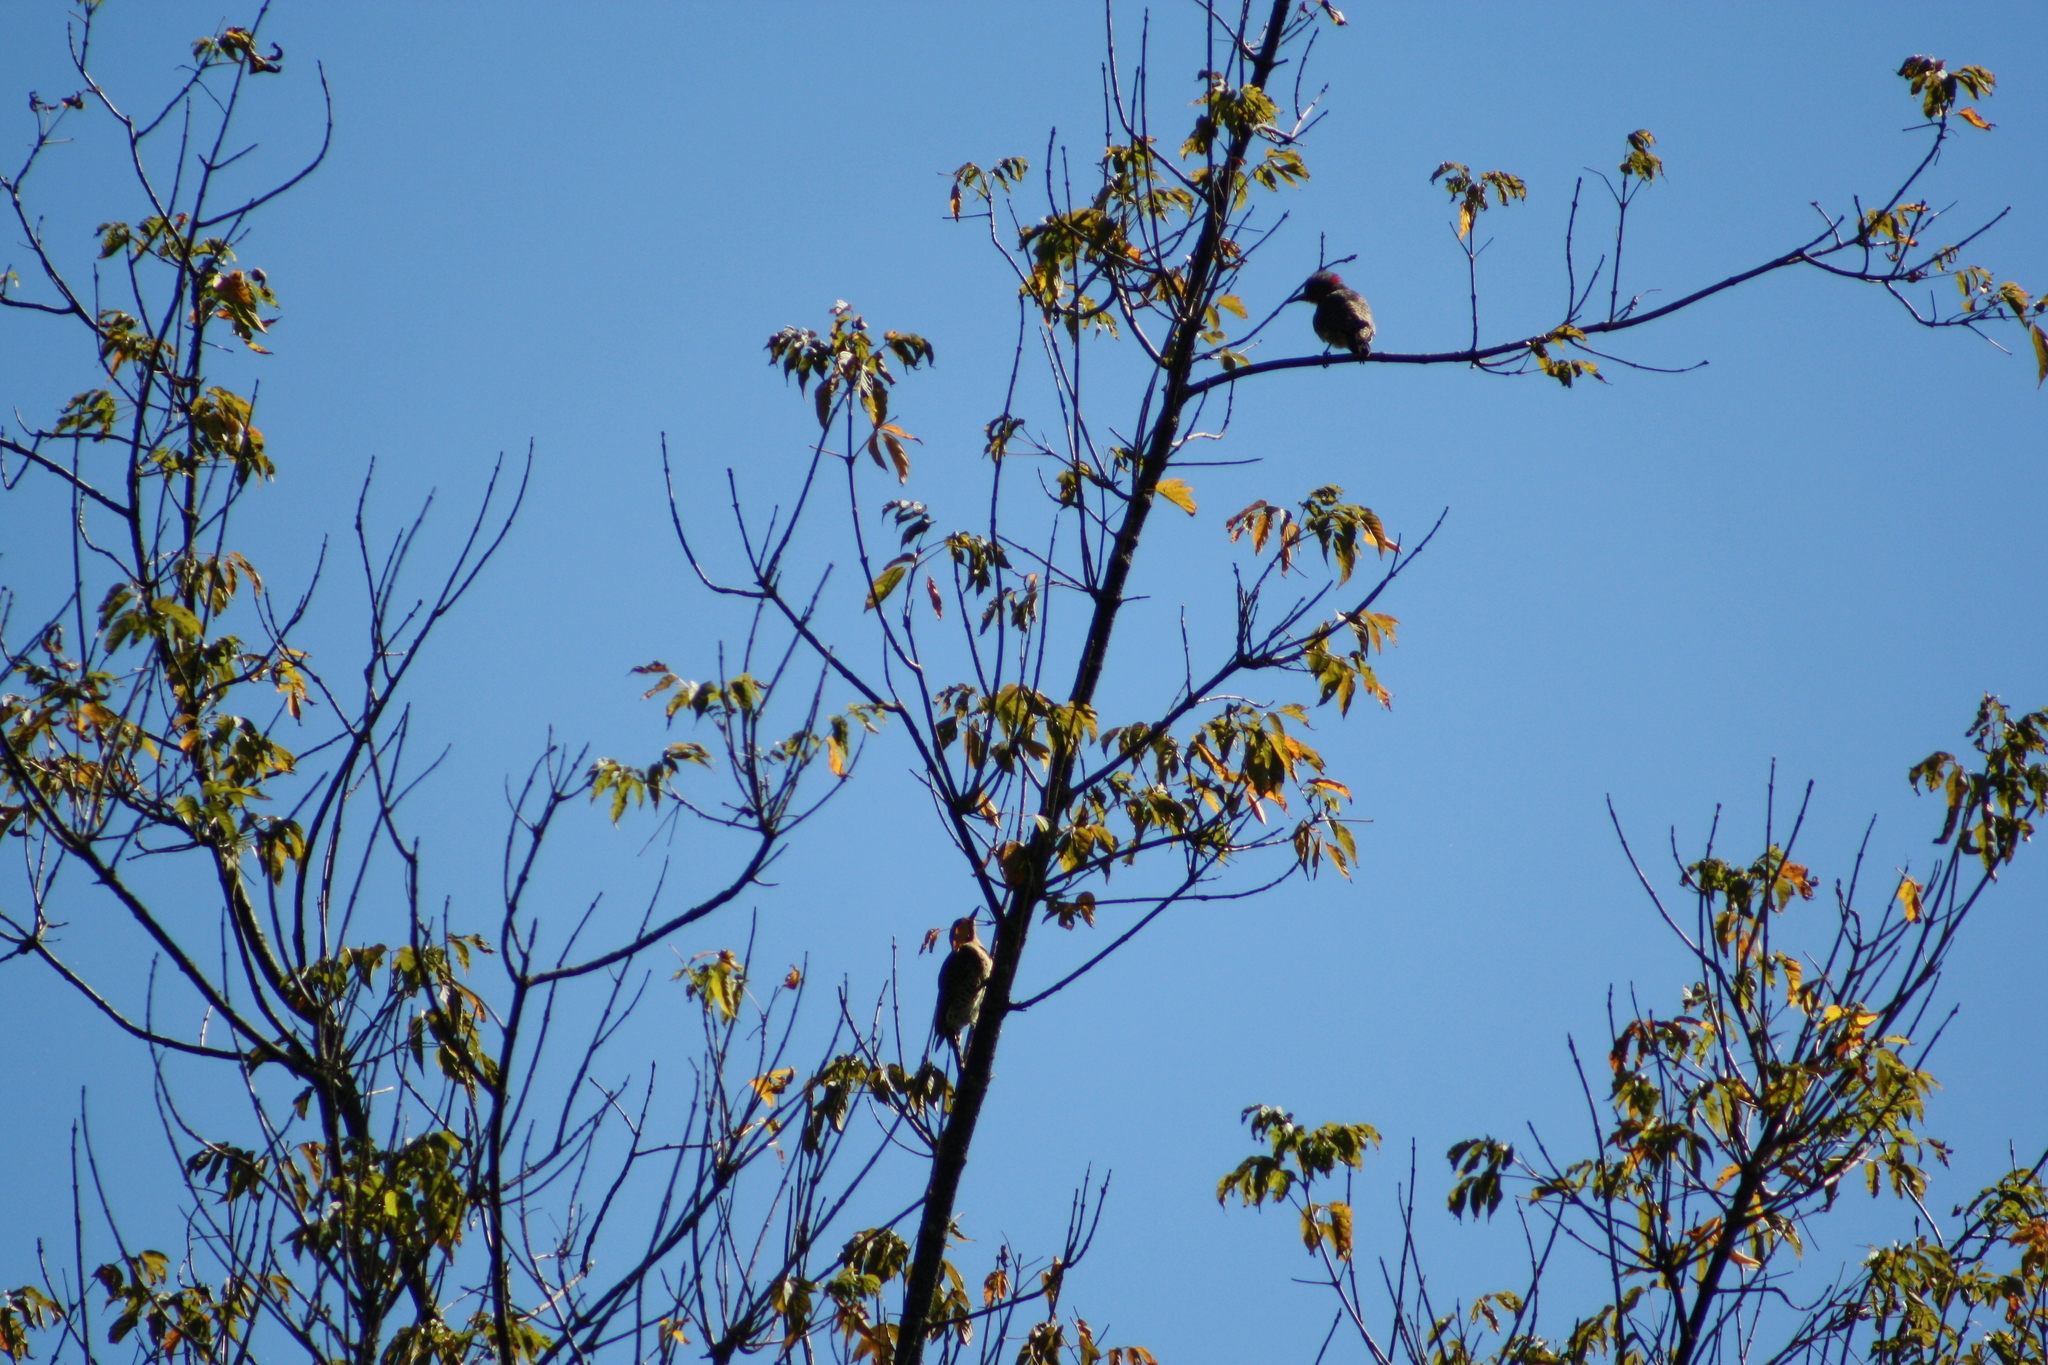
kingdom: Animalia
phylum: Chordata
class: Aves
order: Piciformes
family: Picidae
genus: Colaptes
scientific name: Colaptes auratus
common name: Northern flicker
